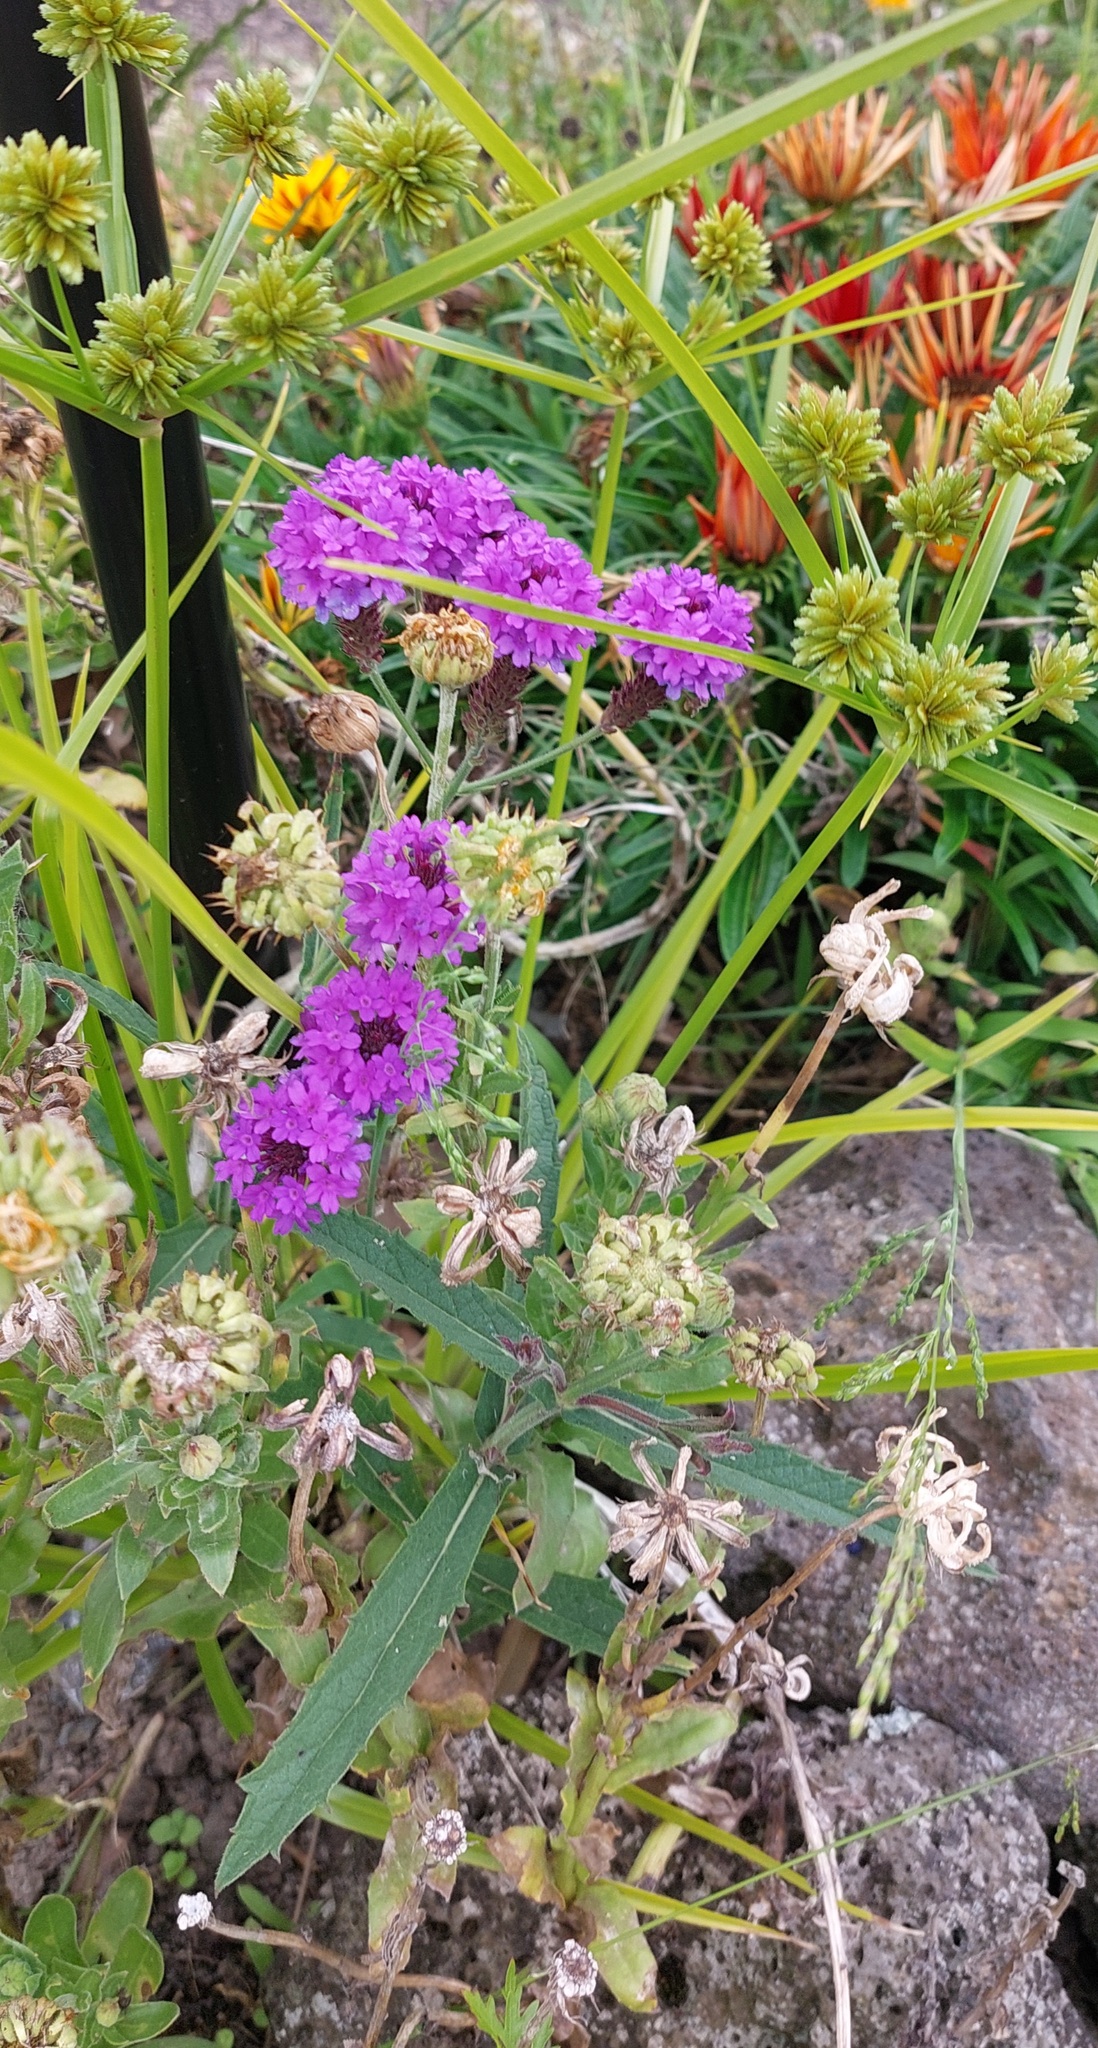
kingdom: Plantae
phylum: Tracheophyta
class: Magnoliopsida
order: Lamiales
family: Verbenaceae
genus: Verbena
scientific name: Verbena rigida
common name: Slender vervain
